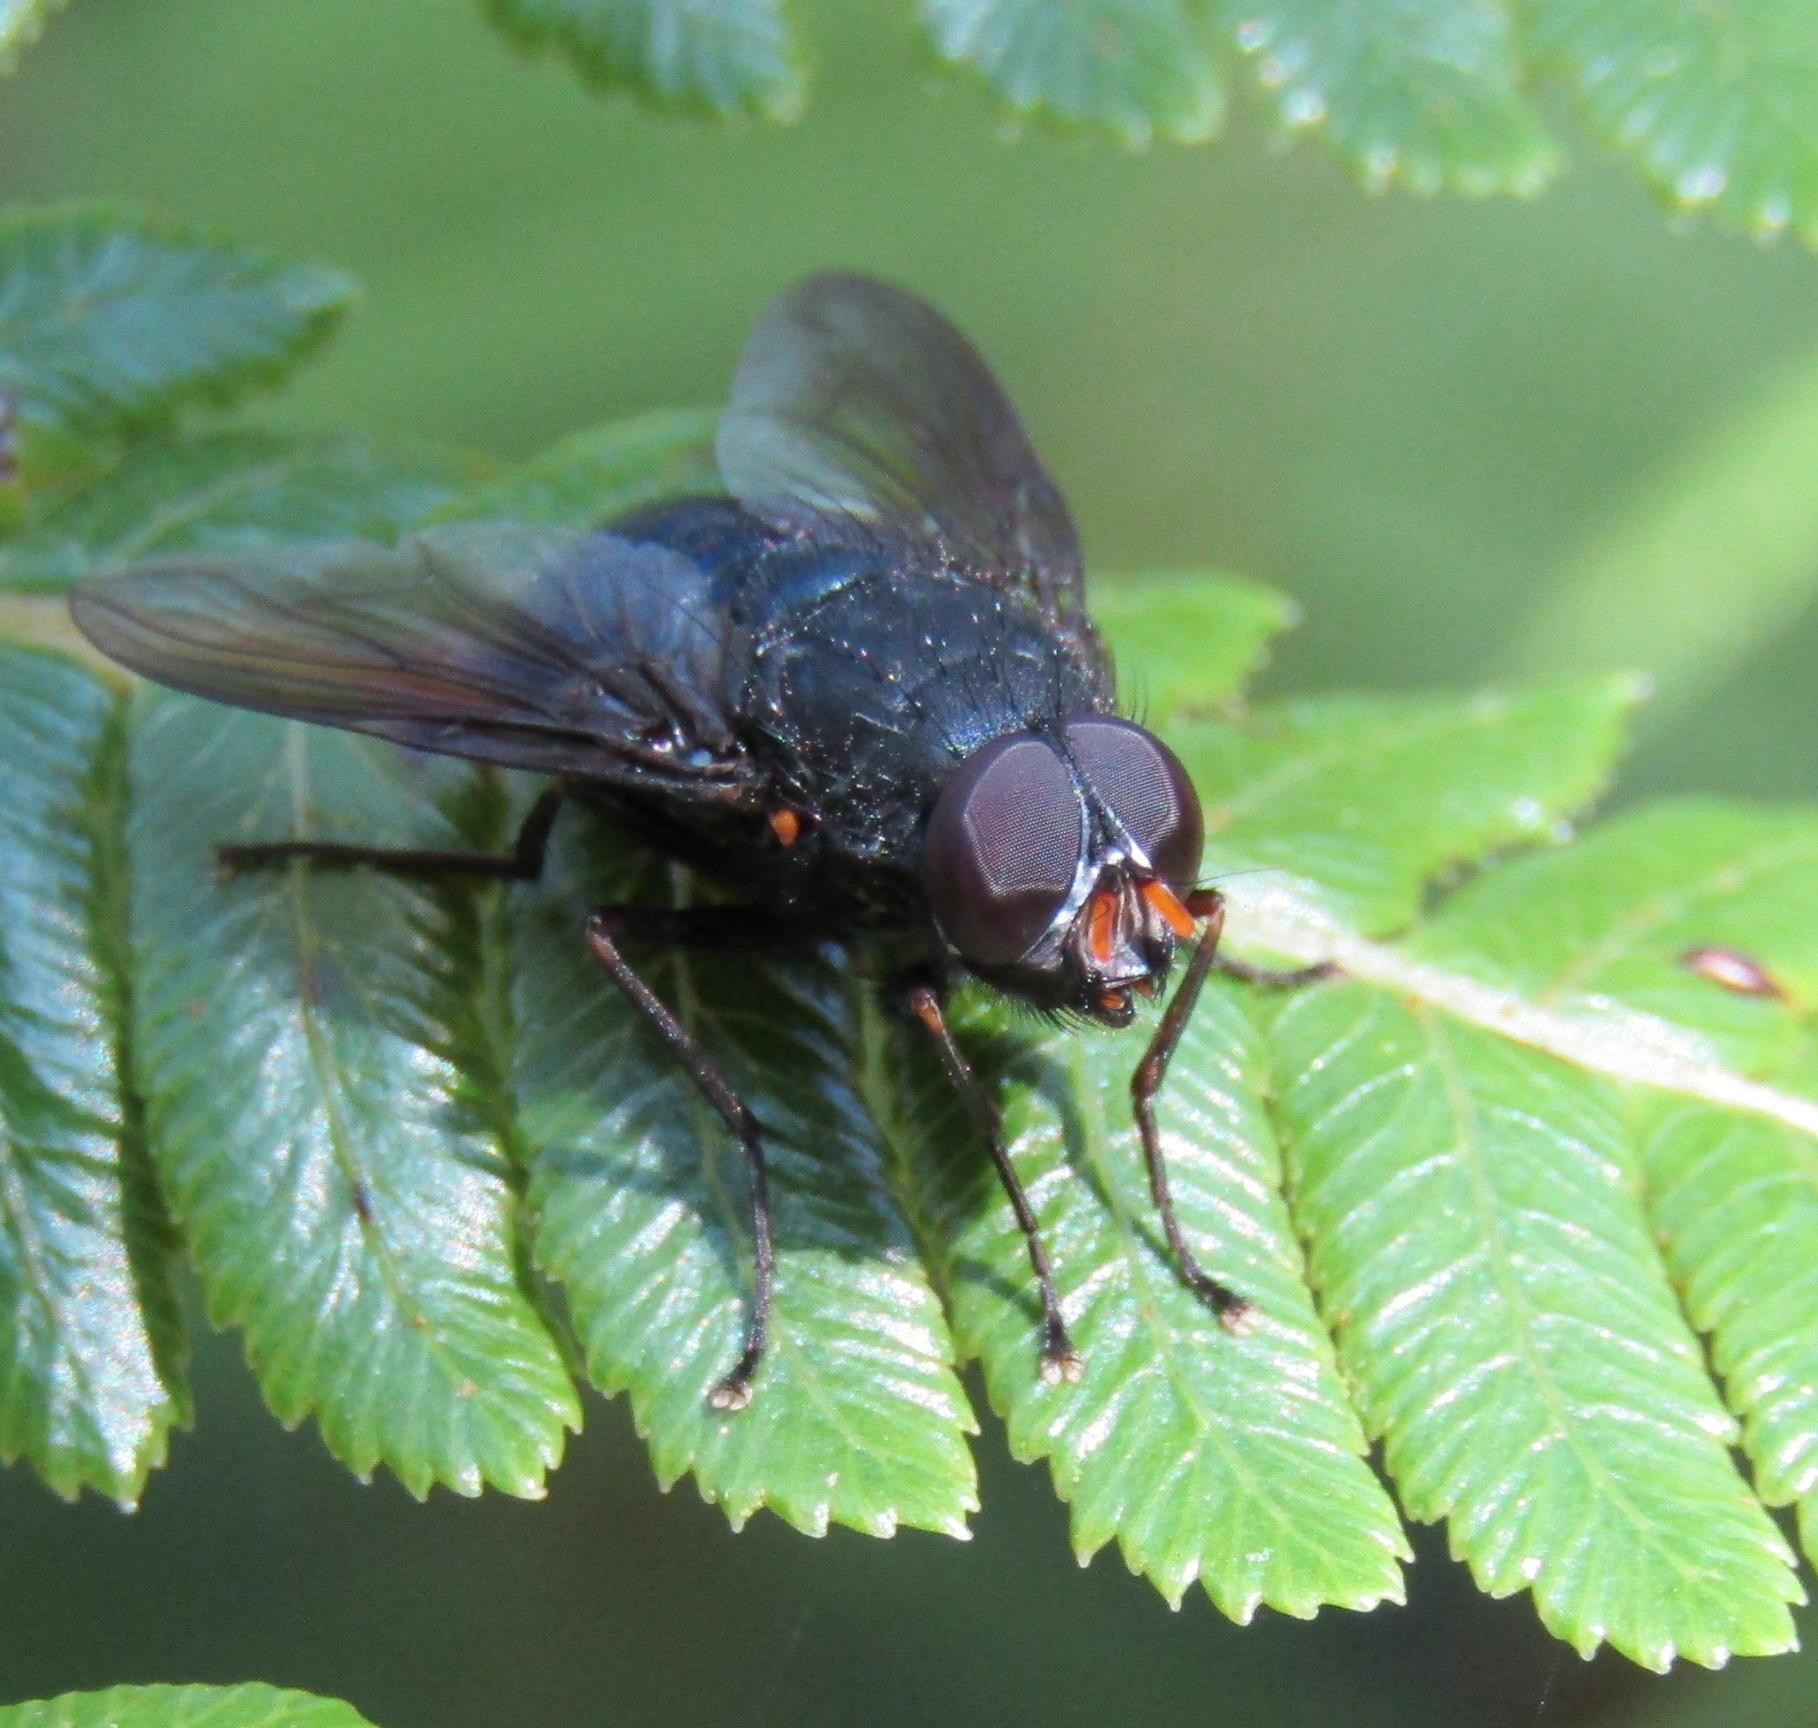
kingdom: Animalia
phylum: Arthropoda
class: Insecta
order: Diptera
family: Muscidae
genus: Calliphoroides
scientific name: Calliphoroides antennatis
